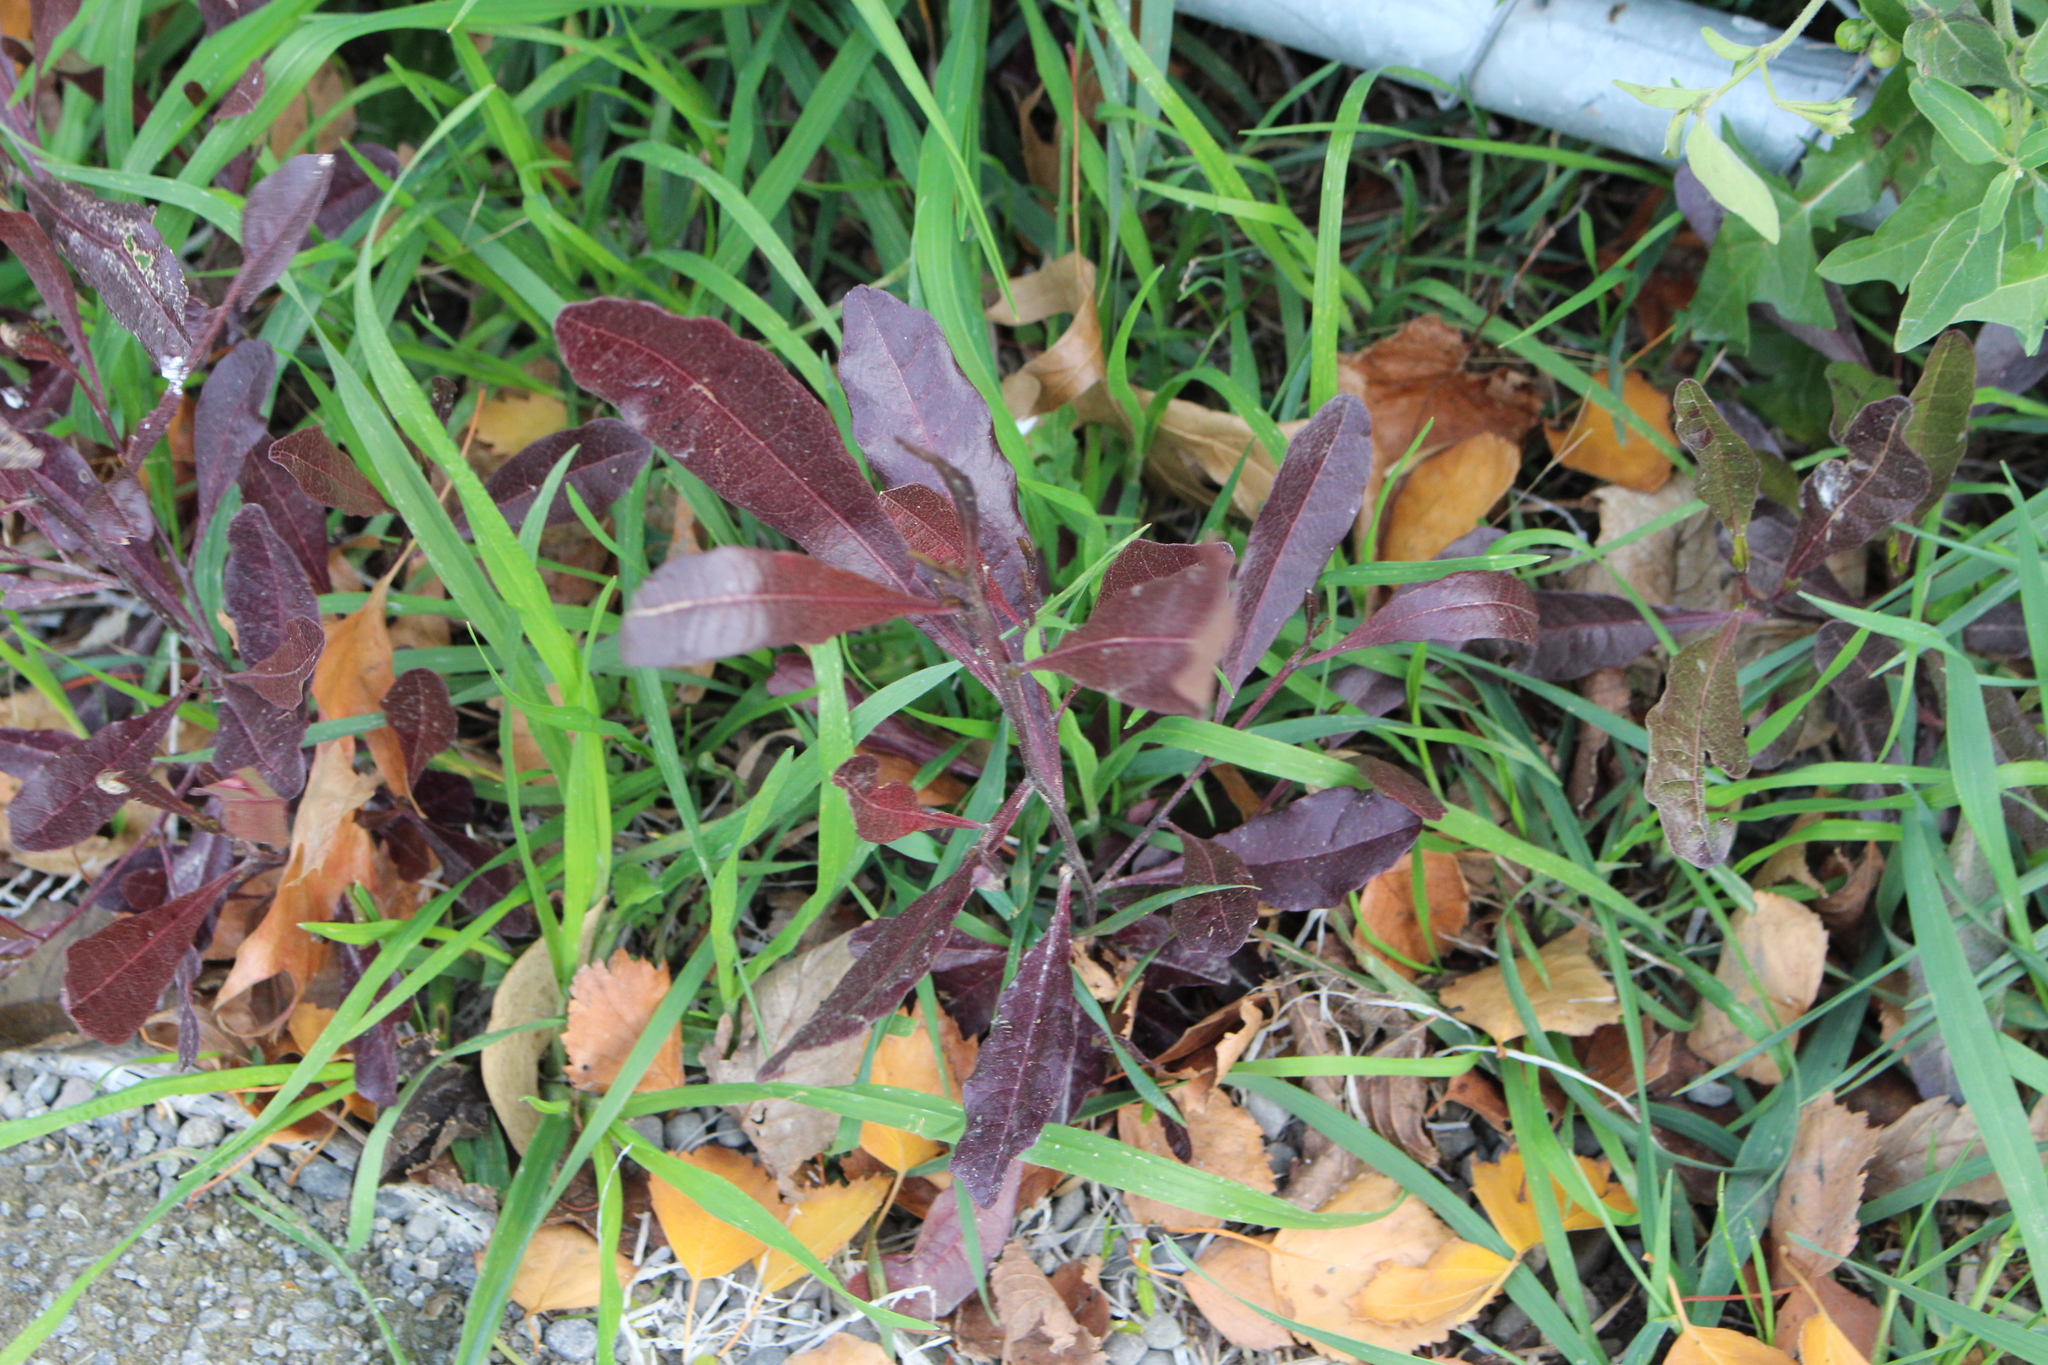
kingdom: Plantae
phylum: Tracheophyta
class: Magnoliopsida
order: Sapindales
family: Sapindaceae
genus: Dodonaea
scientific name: Dodonaea viscosa
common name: Hopbush
